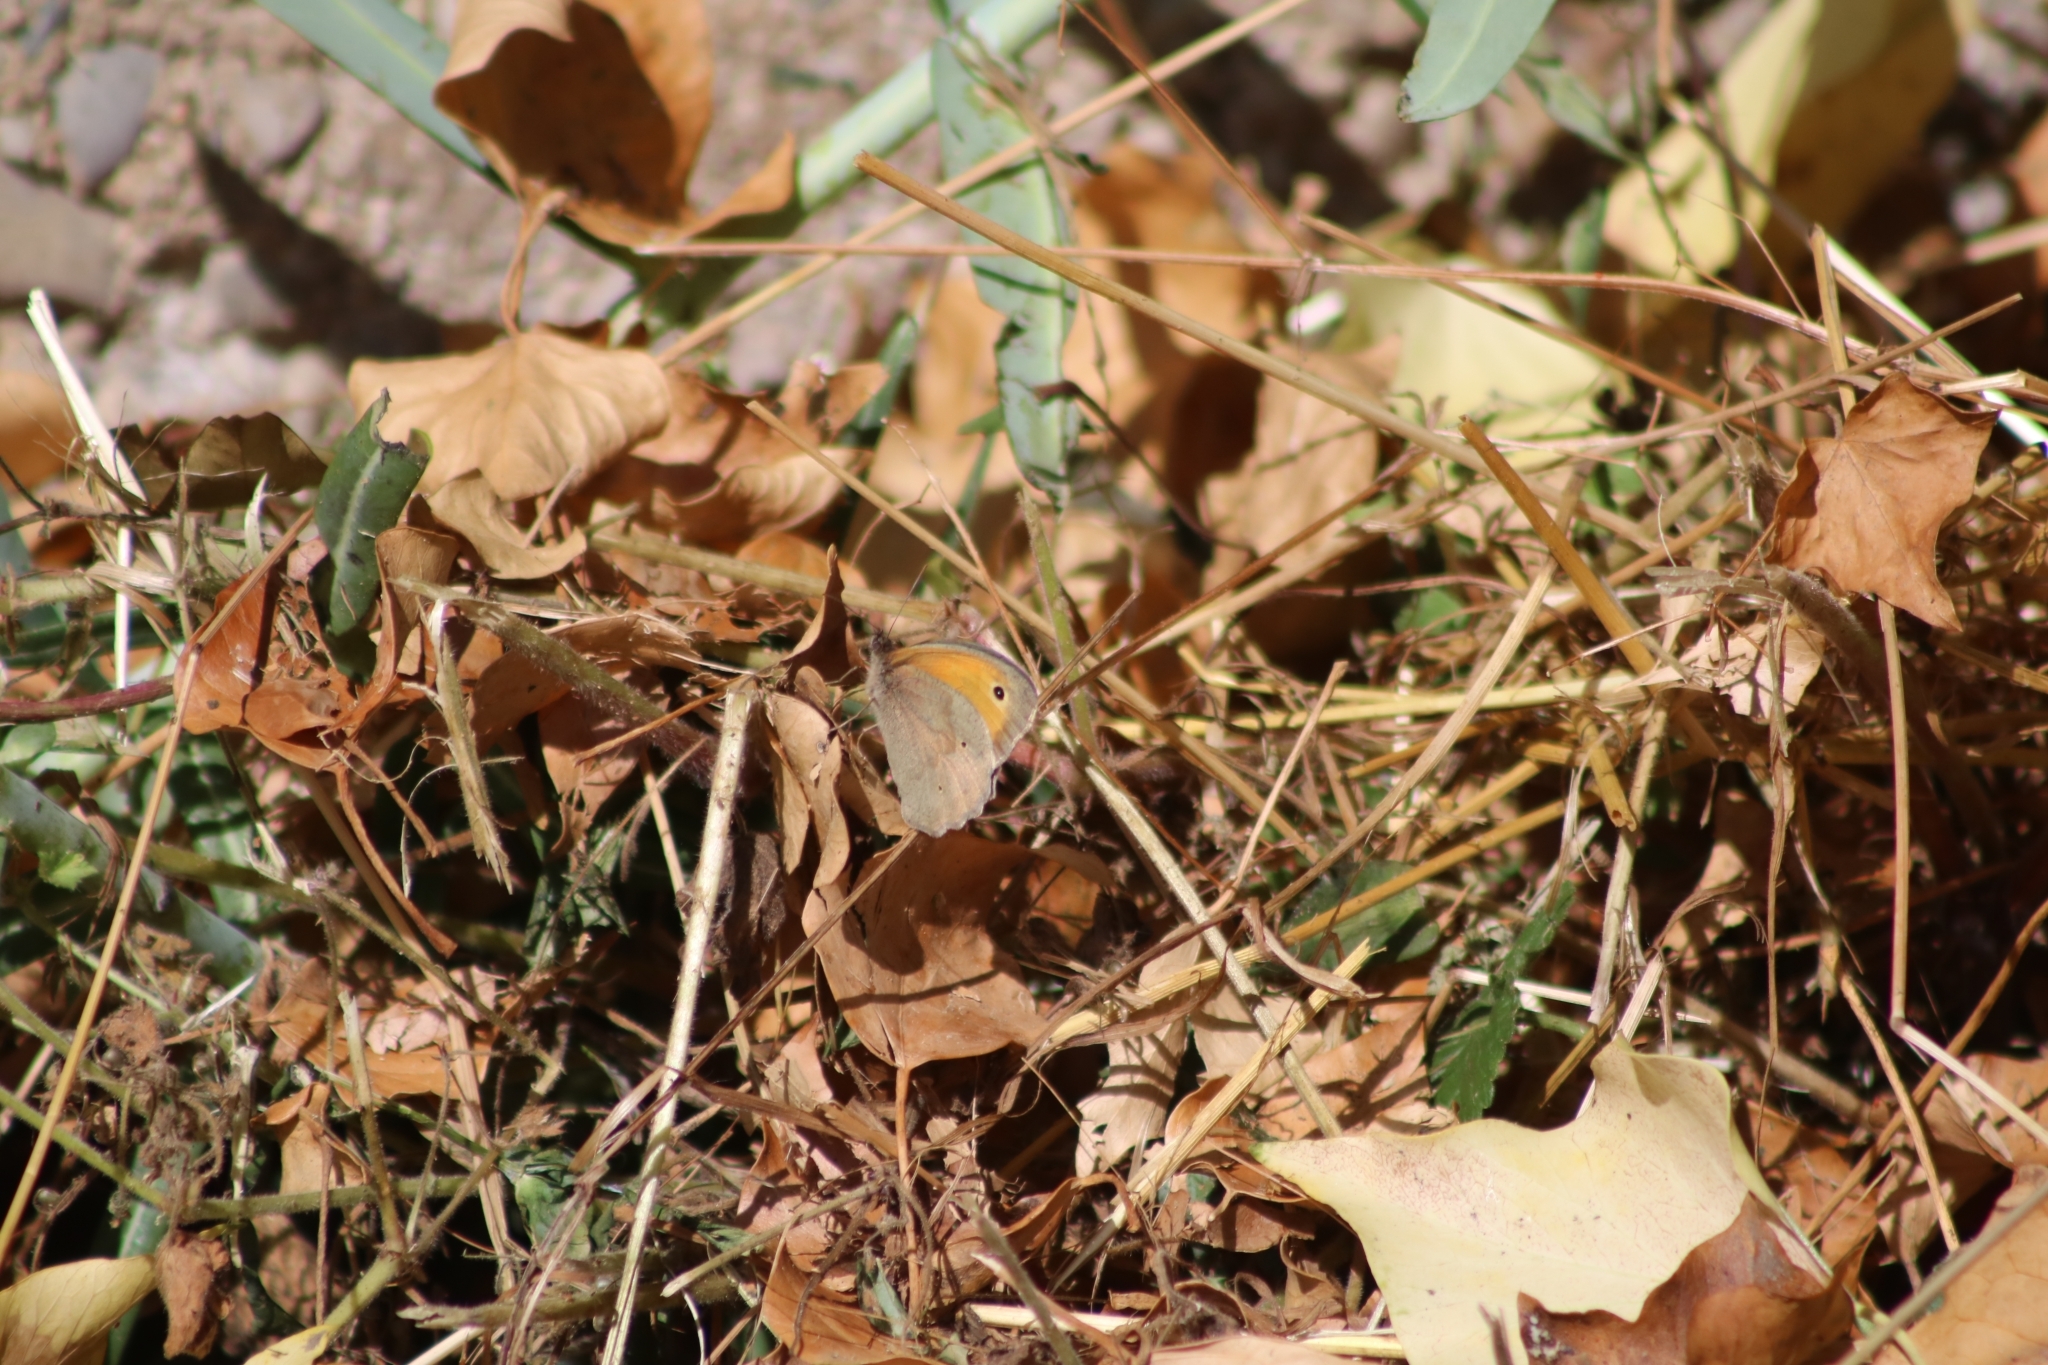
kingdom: Animalia
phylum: Arthropoda
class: Insecta
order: Lepidoptera
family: Nymphalidae
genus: Maniola
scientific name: Maniola jurtina
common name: Meadow brown
